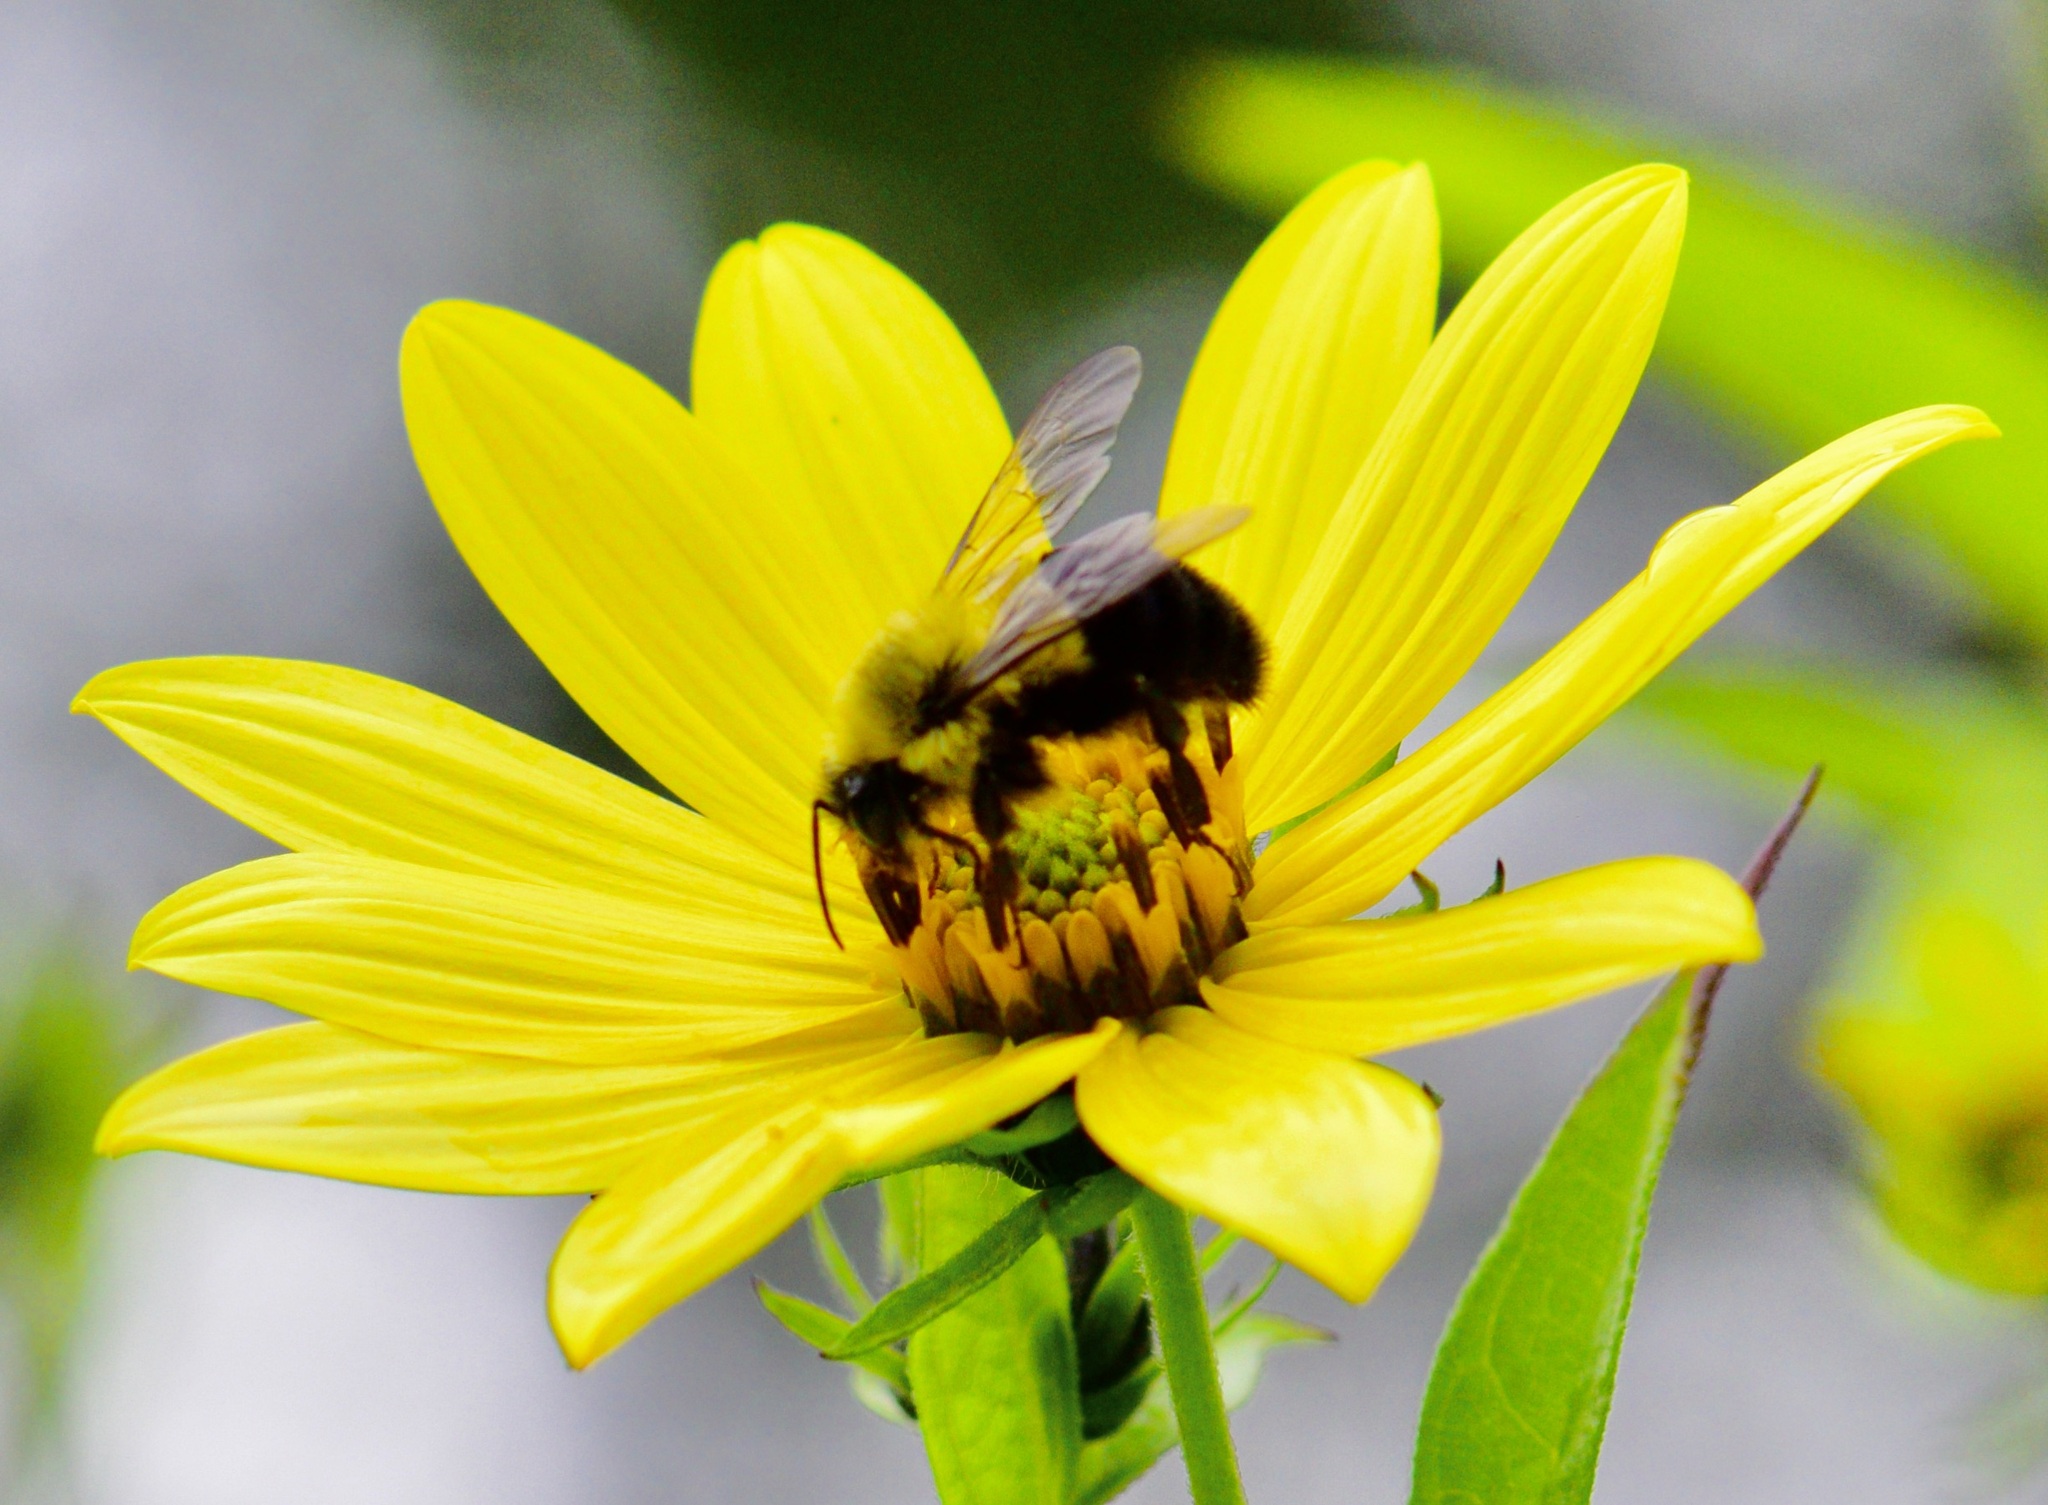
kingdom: Animalia
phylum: Arthropoda
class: Insecta
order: Hymenoptera
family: Apidae
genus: Bombus
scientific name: Bombus impatiens
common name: Common eastern bumble bee
